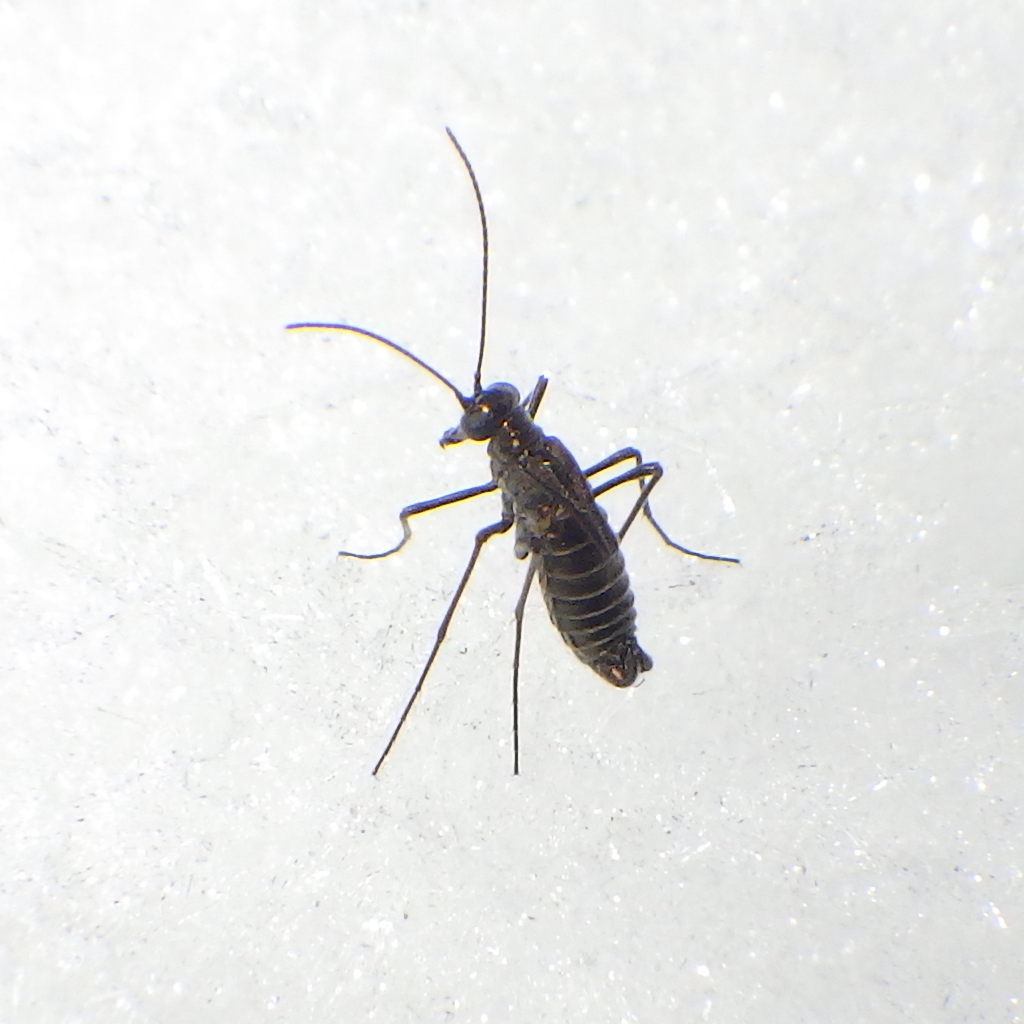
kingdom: Animalia
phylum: Arthropoda
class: Insecta
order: Mecoptera
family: Boreidae
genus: Boreus
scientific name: Boreus brumalis
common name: Mid-winter boreus
